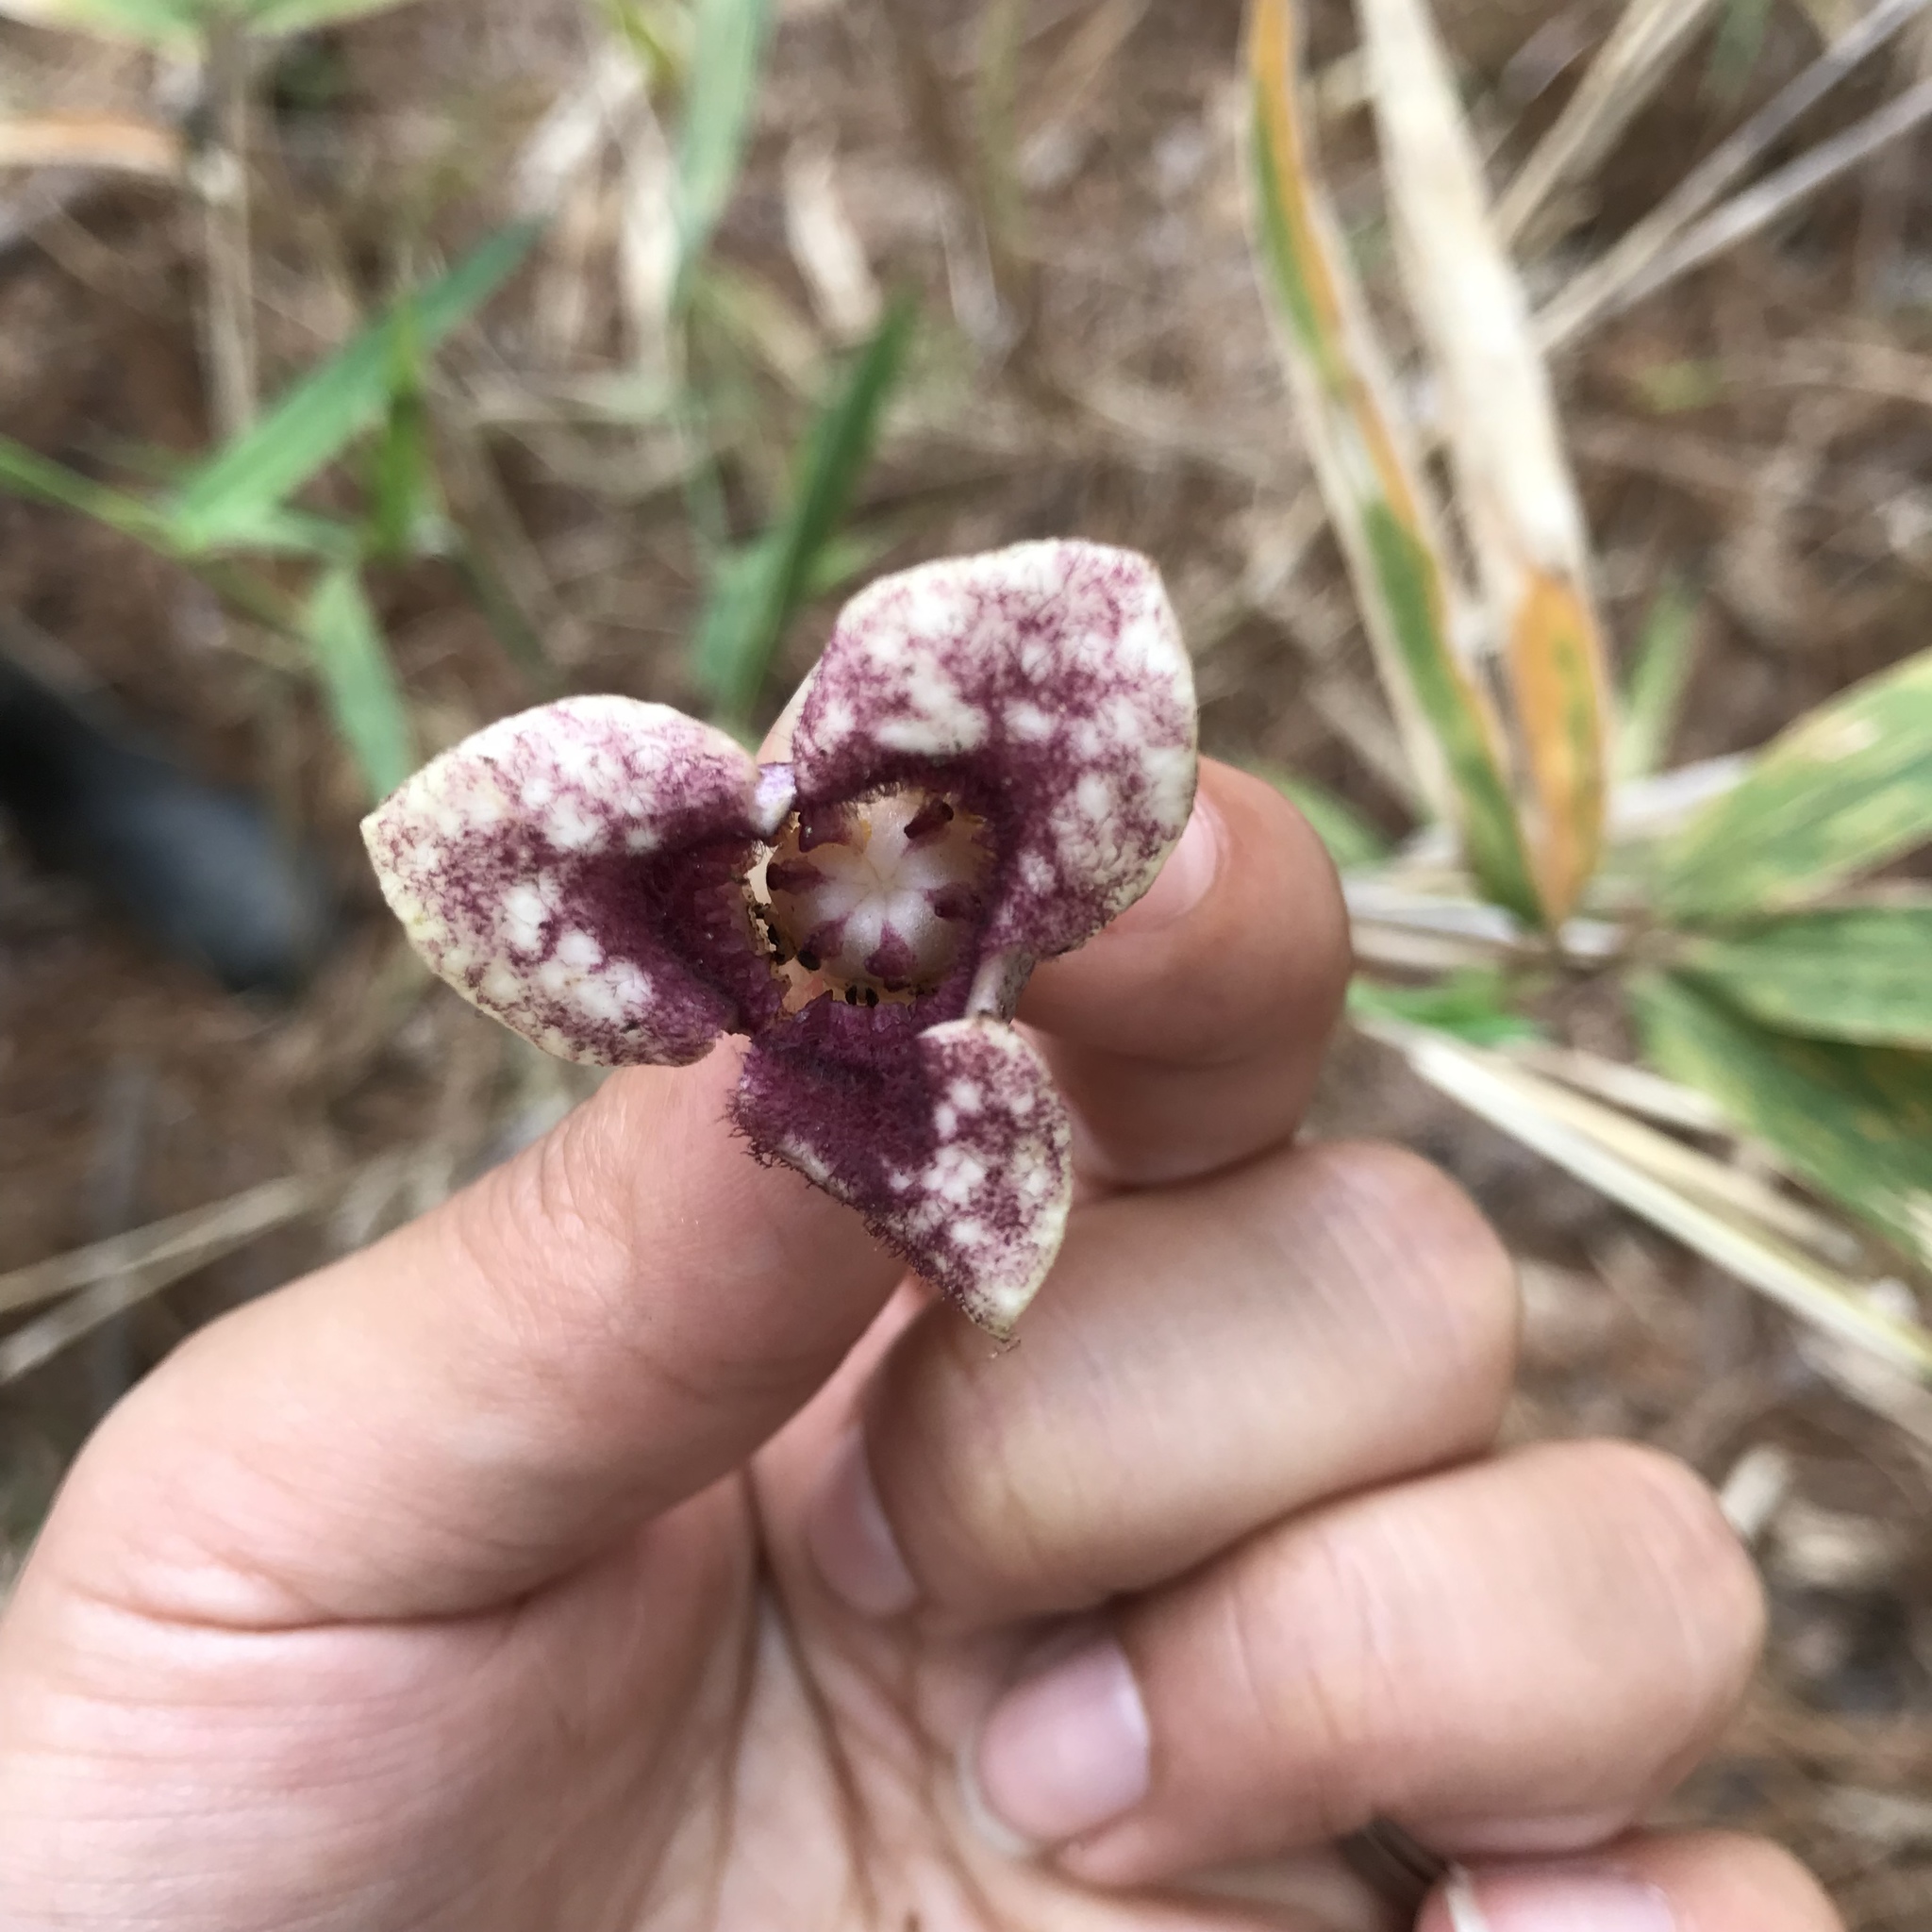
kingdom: Plantae
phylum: Tracheophyta
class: Magnoliopsida
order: Piperales
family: Aristolochiaceae
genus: Hexastylis
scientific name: Hexastylis sorriei
